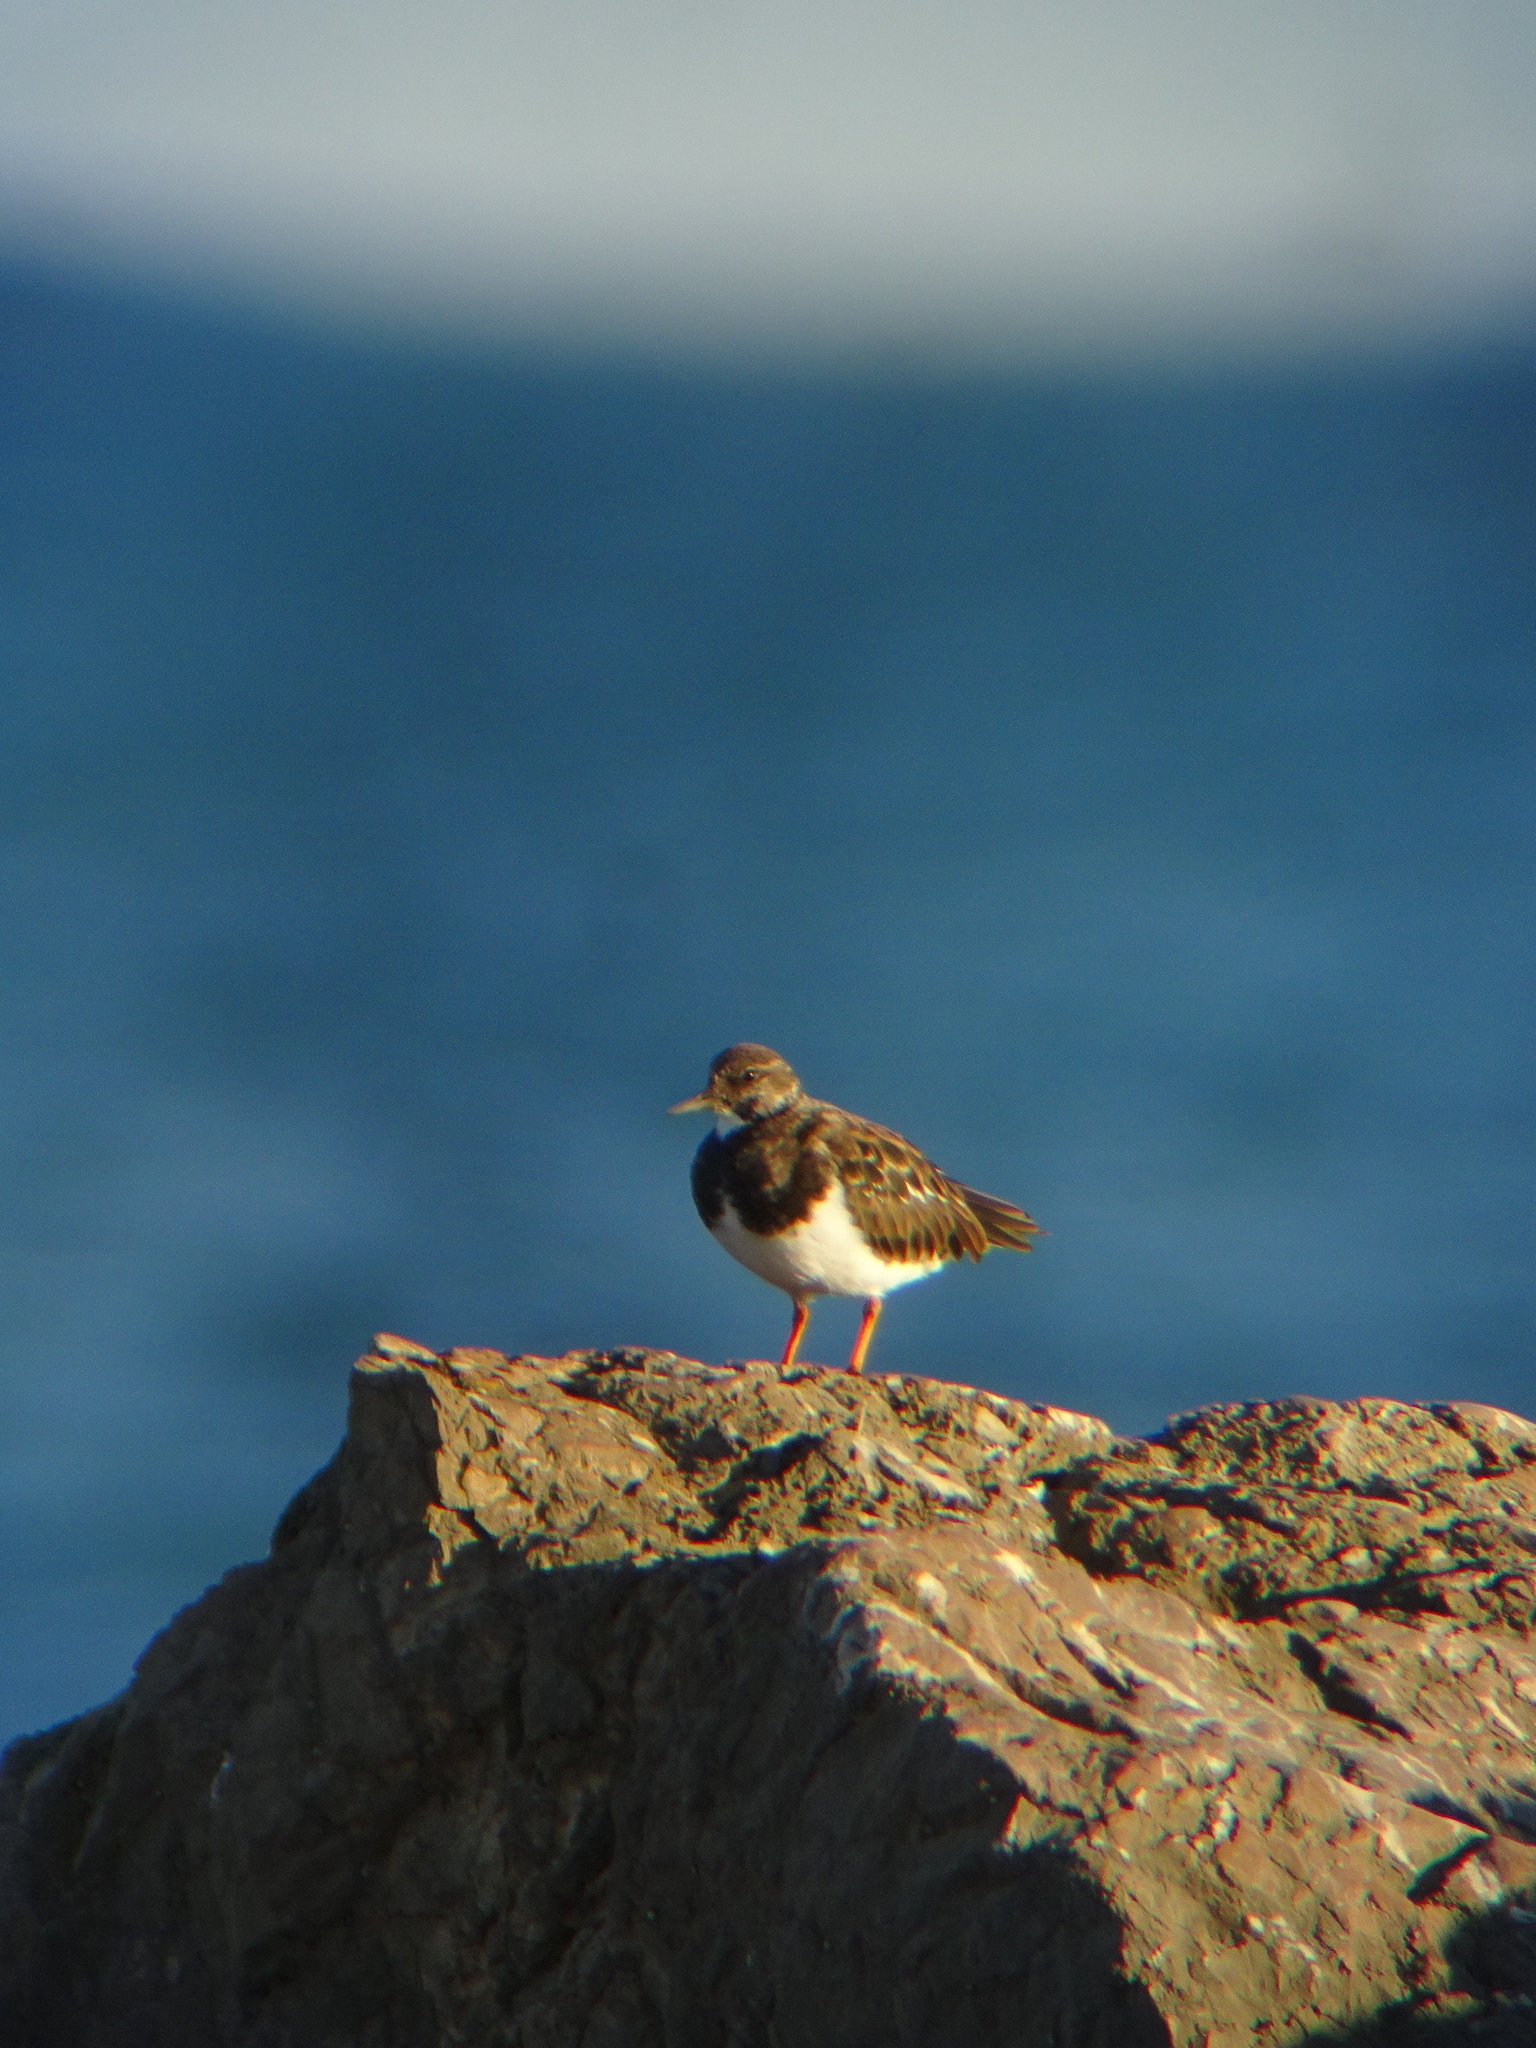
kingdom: Animalia
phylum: Chordata
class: Aves
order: Charadriiformes
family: Scolopacidae
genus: Arenaria
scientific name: Arenaria interpres
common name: Ruddy turnstone
